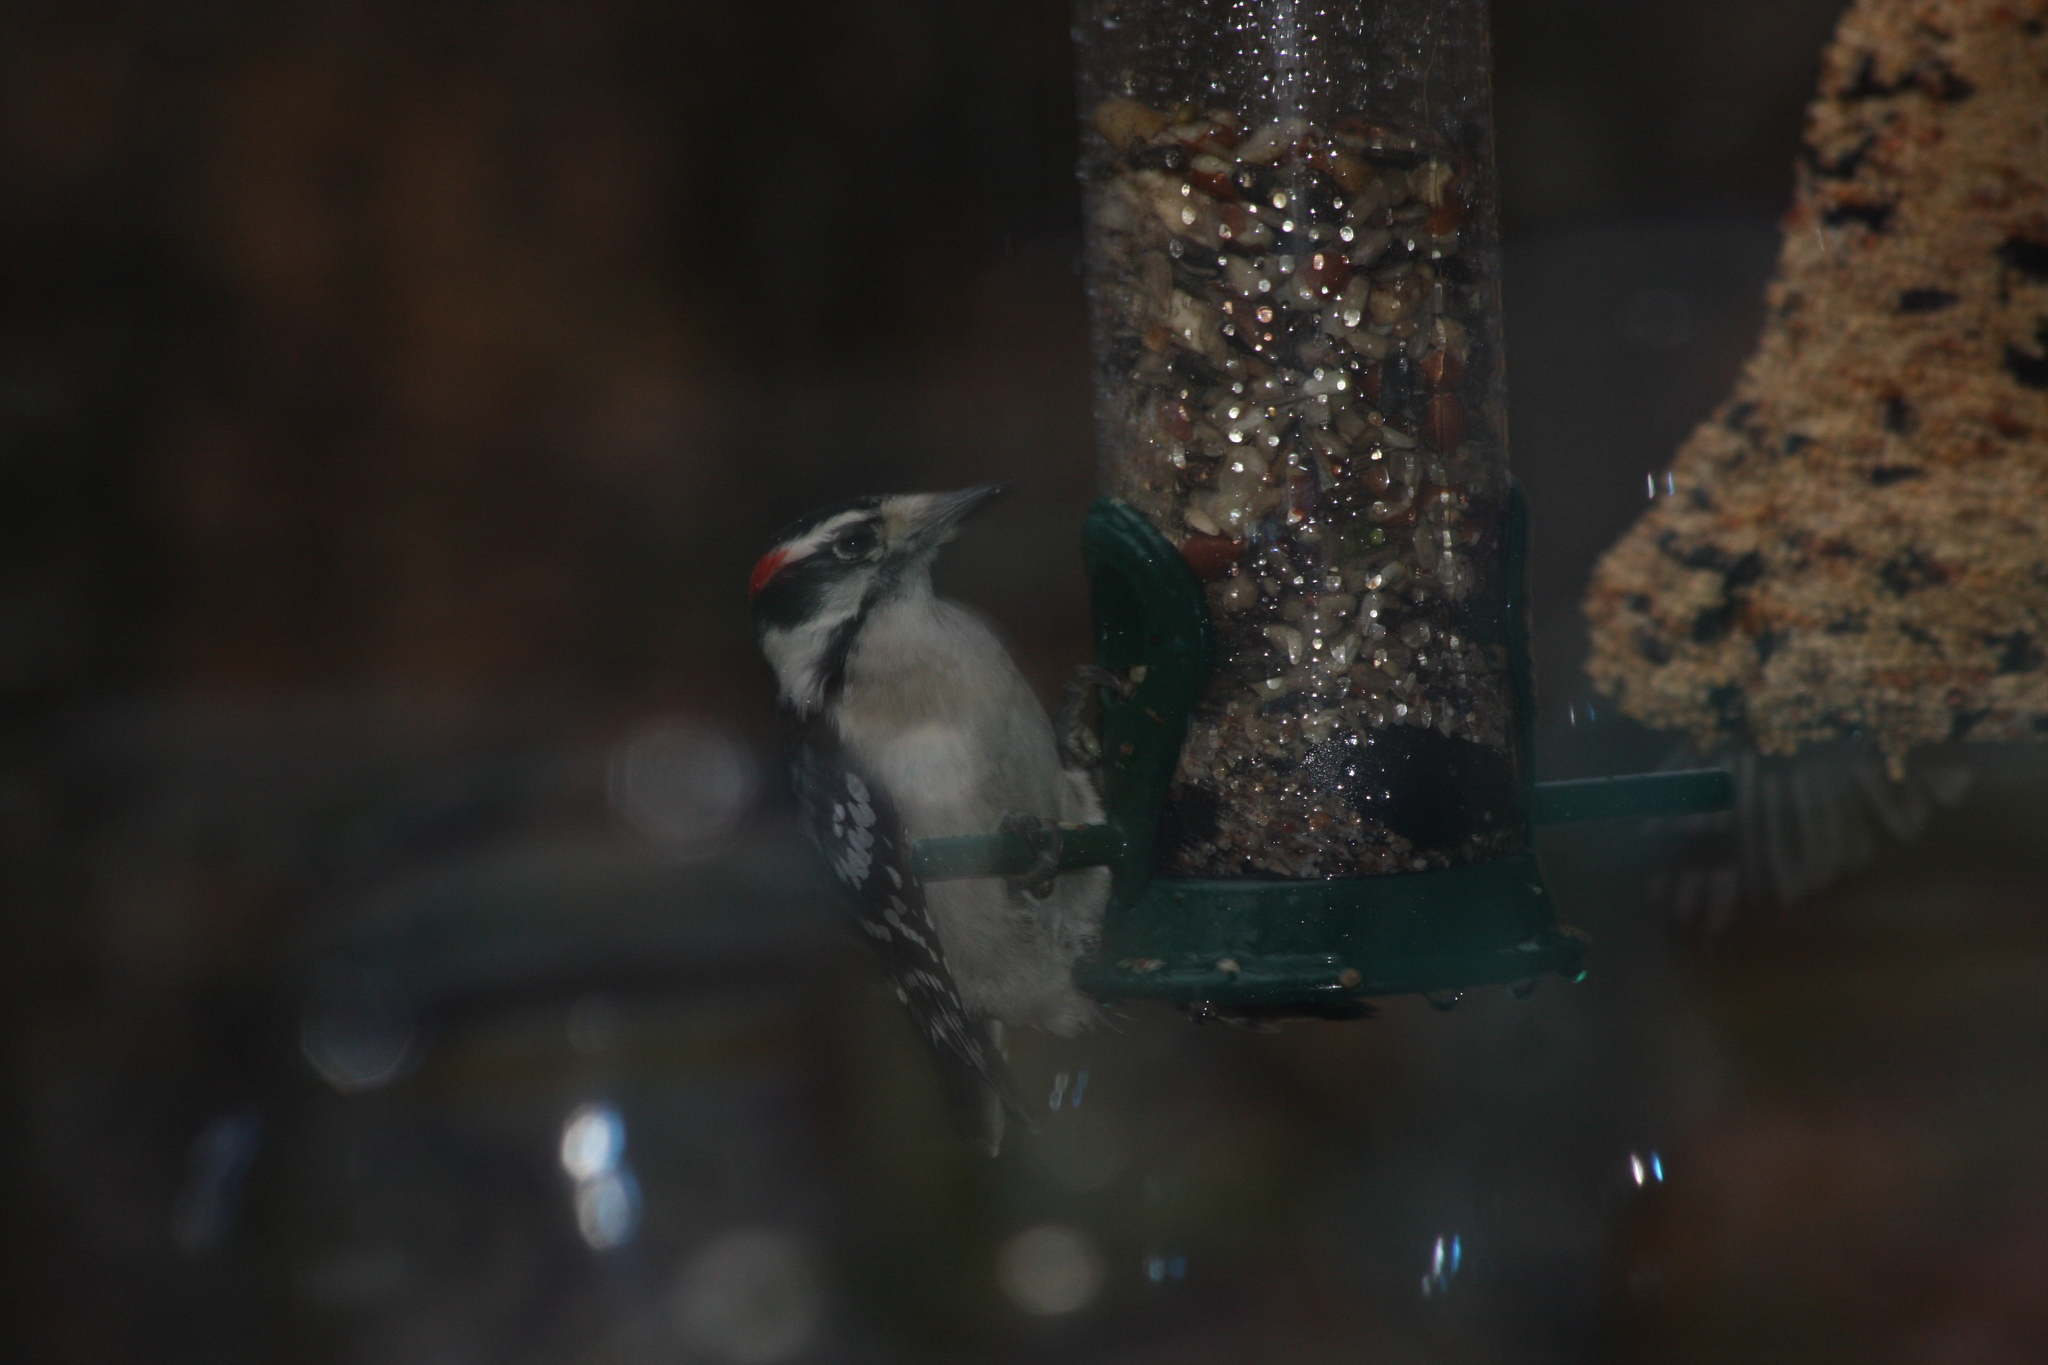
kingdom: Animalia
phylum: Chordata
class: Aves
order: Piciformes
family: Picidae
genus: Dryobates
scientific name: Dryobates pubescens
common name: Downy woodpecker
